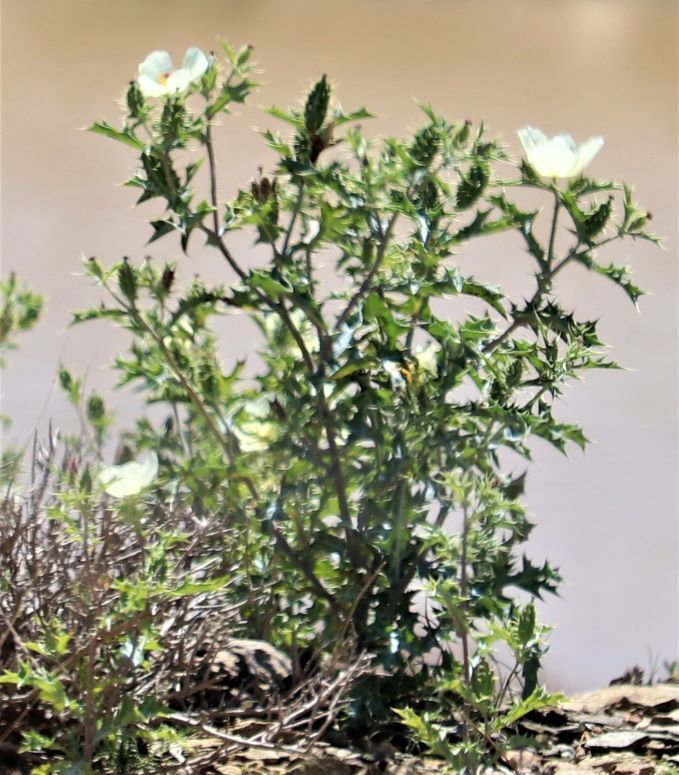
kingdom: Plantae
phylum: Tracheophyta
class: Magnoliopsida
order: Ranunculales
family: Papaveraceae
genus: Argemone
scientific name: Argemone ochroleuca
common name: White-flower mexican-poppy
